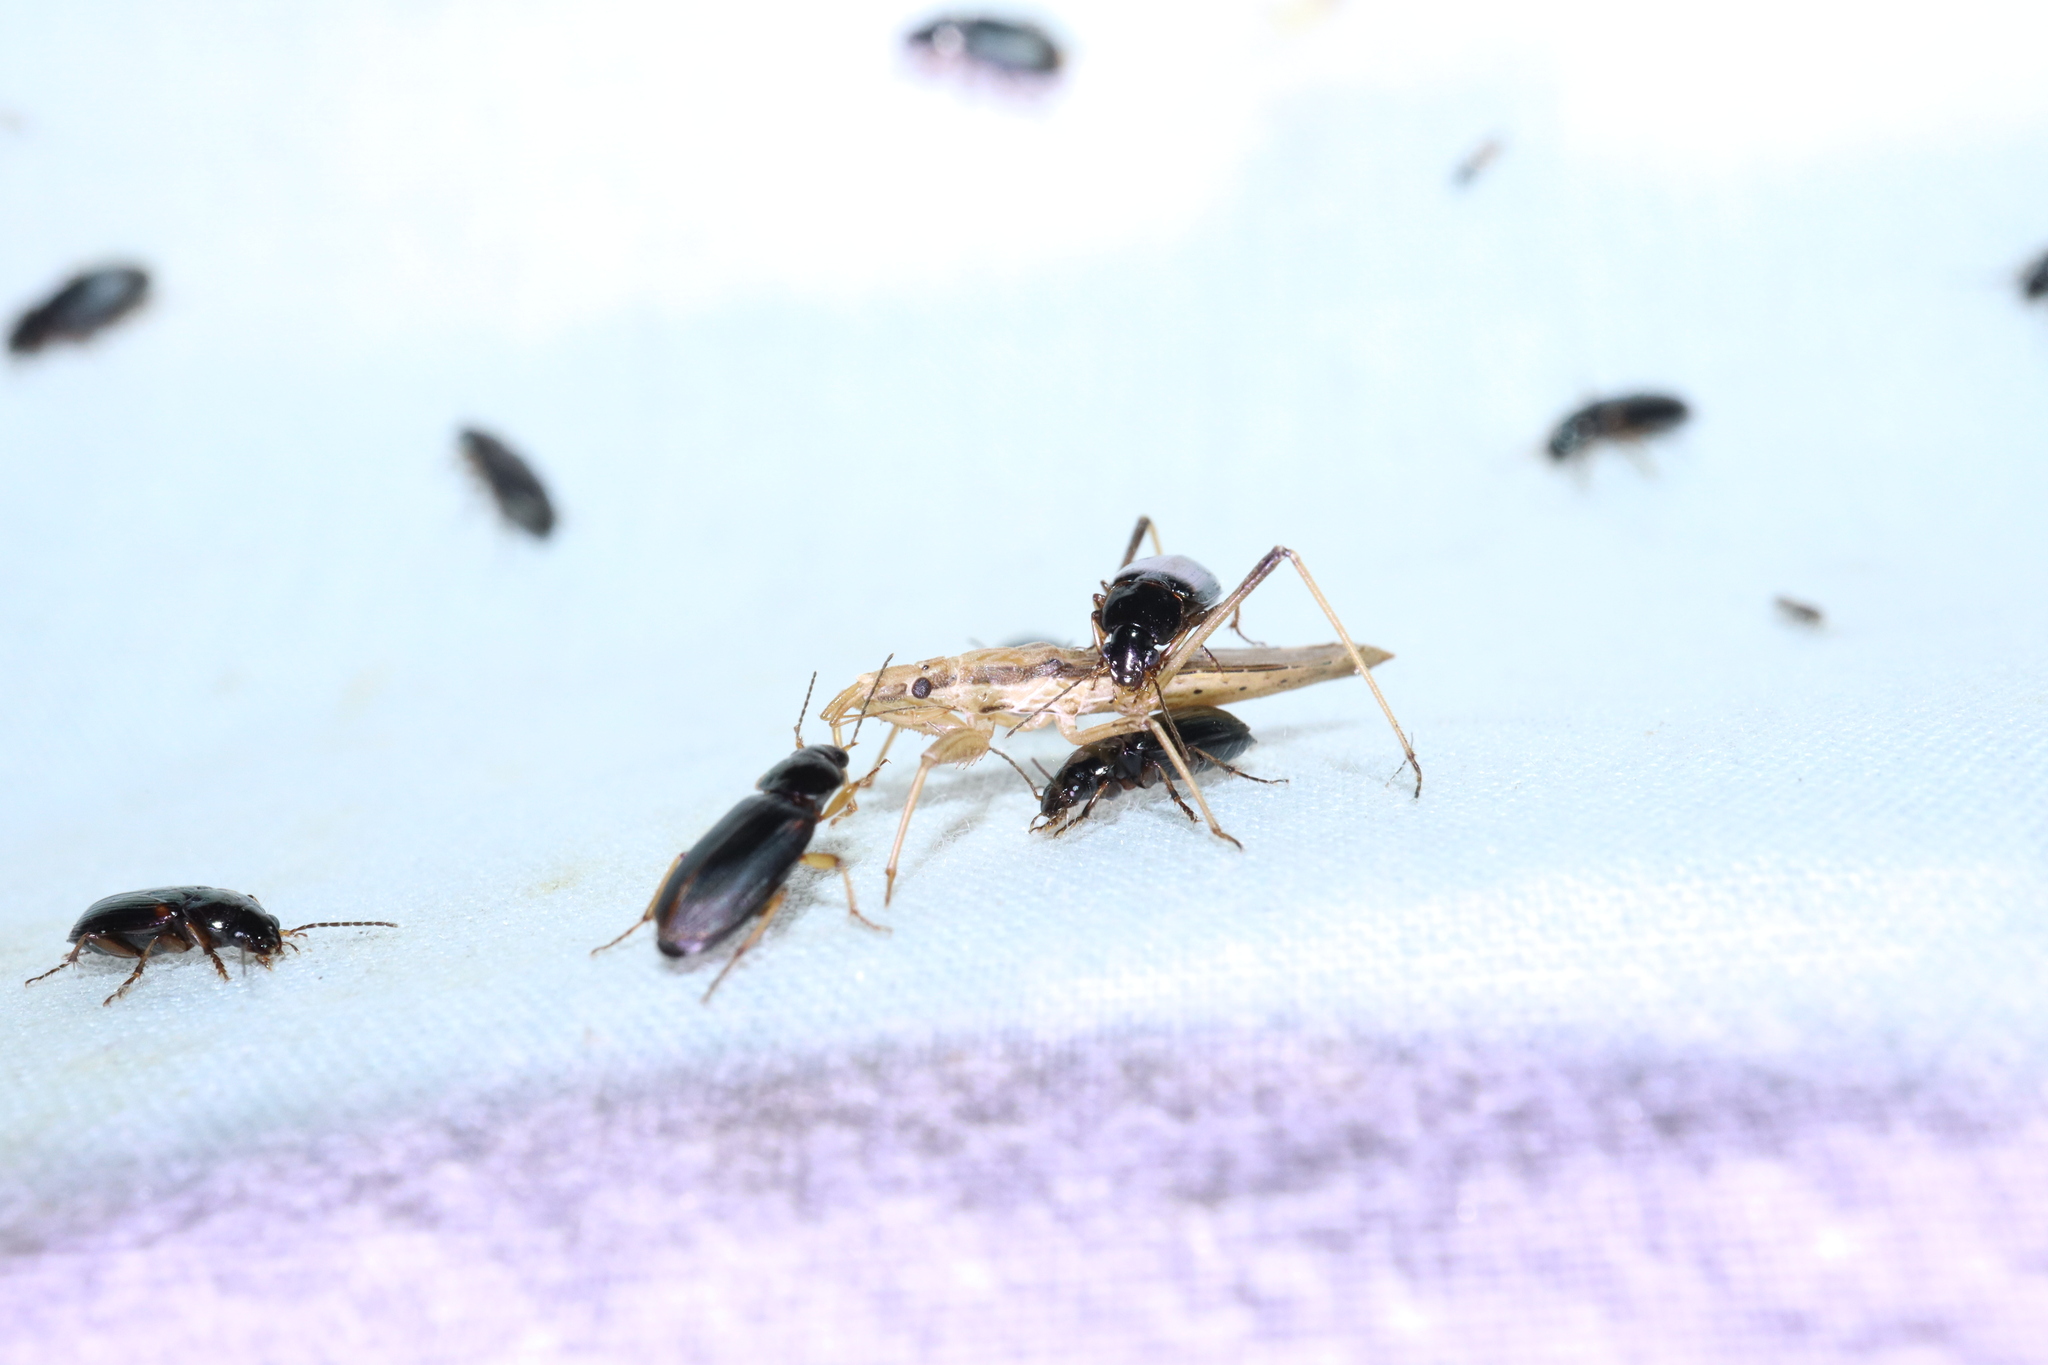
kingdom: Animalia
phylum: Arthropoda
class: Insecta
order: Hemiptera
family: Reduviidae
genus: Sastrapada
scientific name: Sastrapada australica
